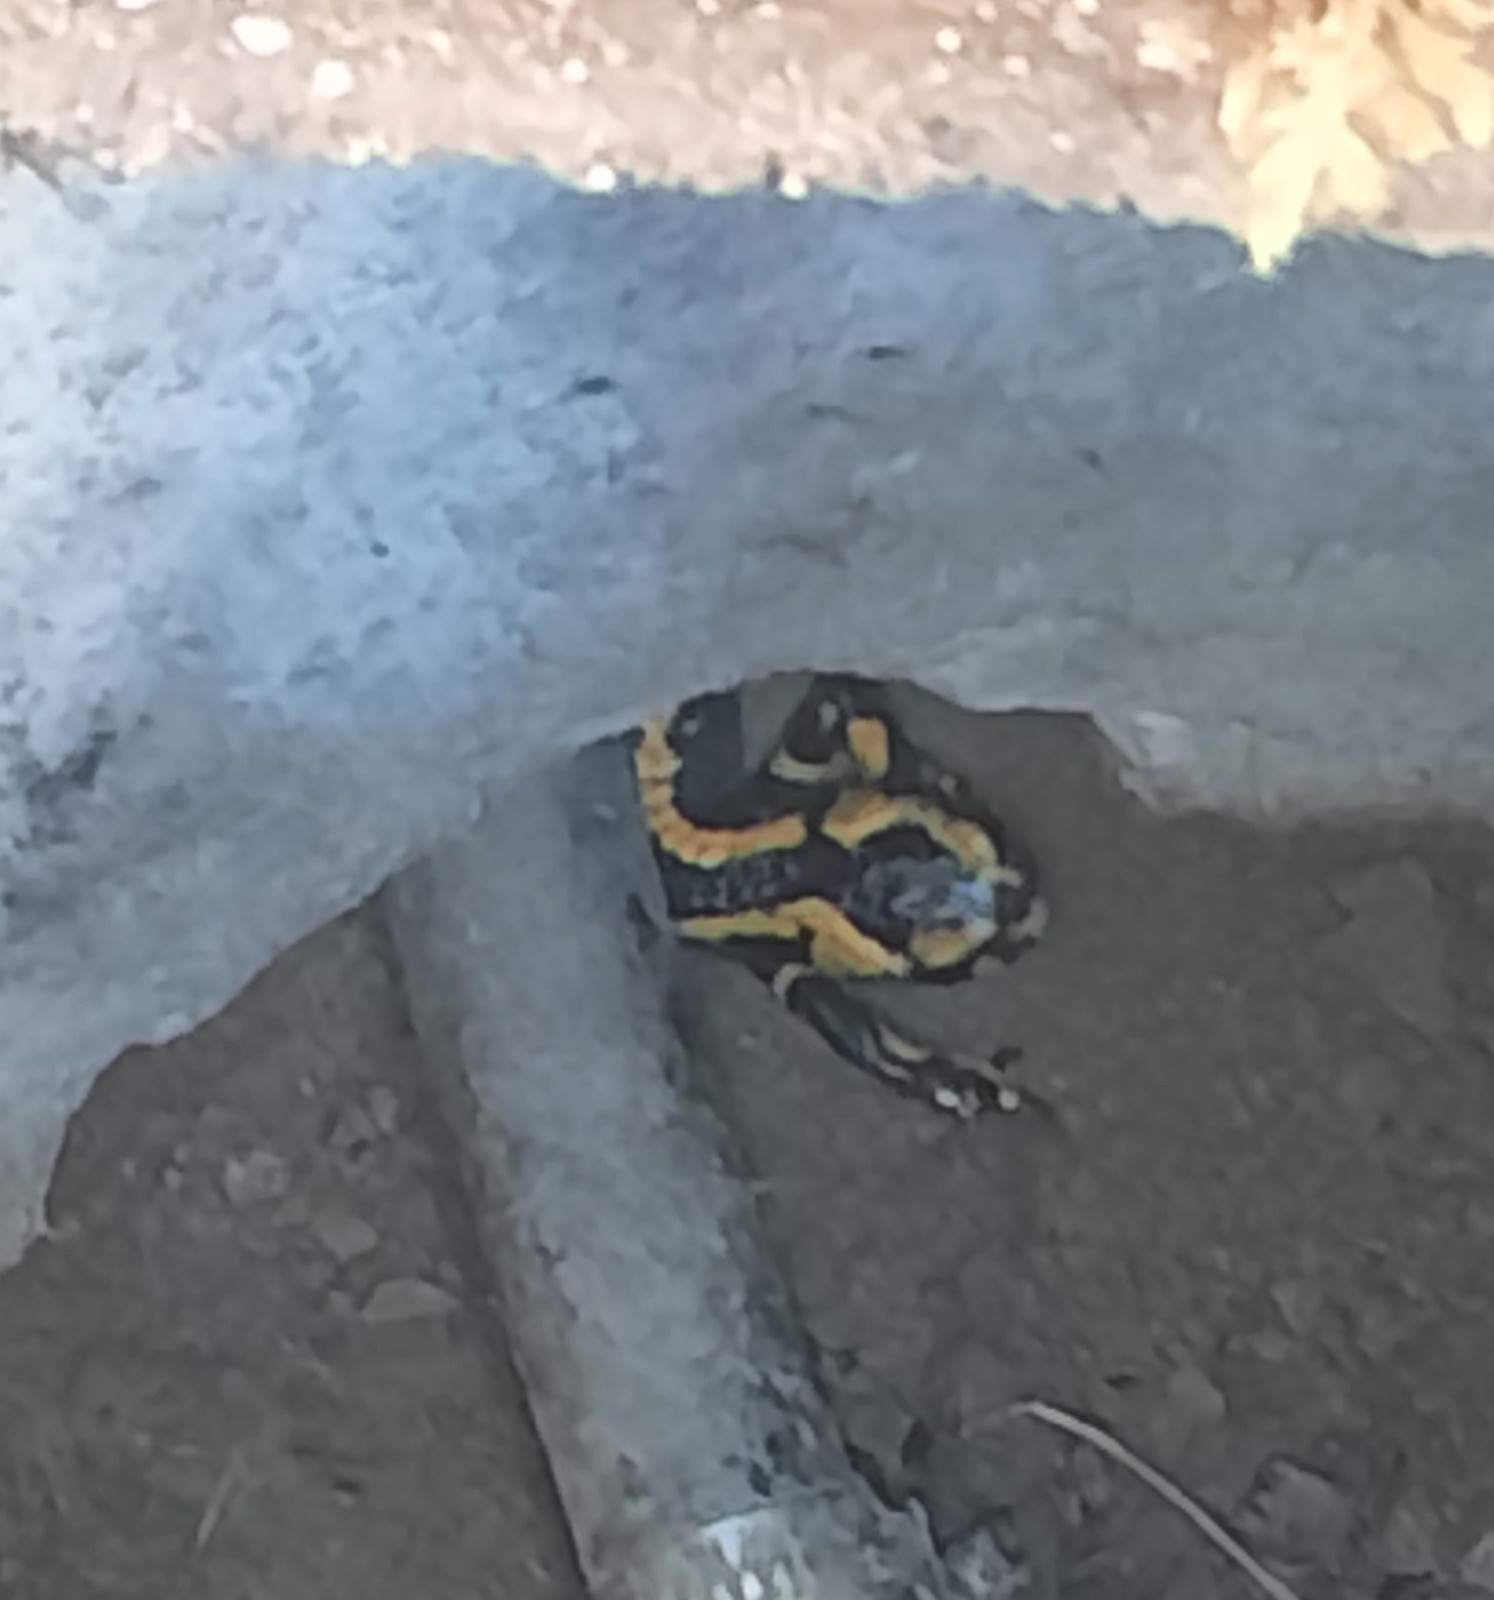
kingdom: Animalia
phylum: Chordata
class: Amphibia
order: Caudata
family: Salamandridae
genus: Salamandra
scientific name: Salamandra salamandra
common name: Fire salamander
